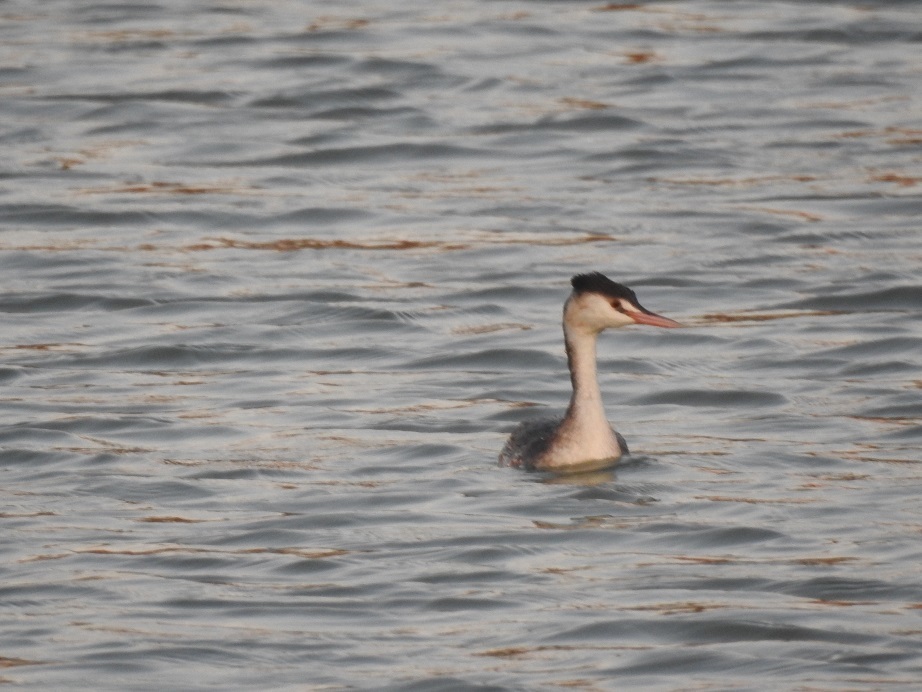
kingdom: Animalia
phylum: Chordata
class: Aves
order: Podicipediformes
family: Podicipedidae
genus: Podiceps
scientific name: Podiceps cristatus
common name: Great crested grebe
